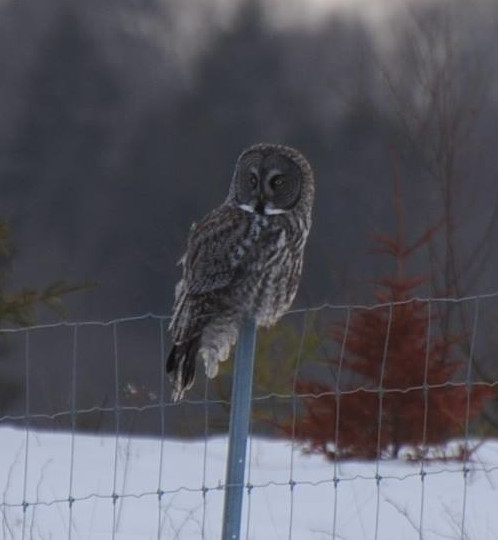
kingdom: Animalia
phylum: Chordata
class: Aves
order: Strigiformes
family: Strigidae
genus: Strix
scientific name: Strix nebulosa
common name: Great grey owl
